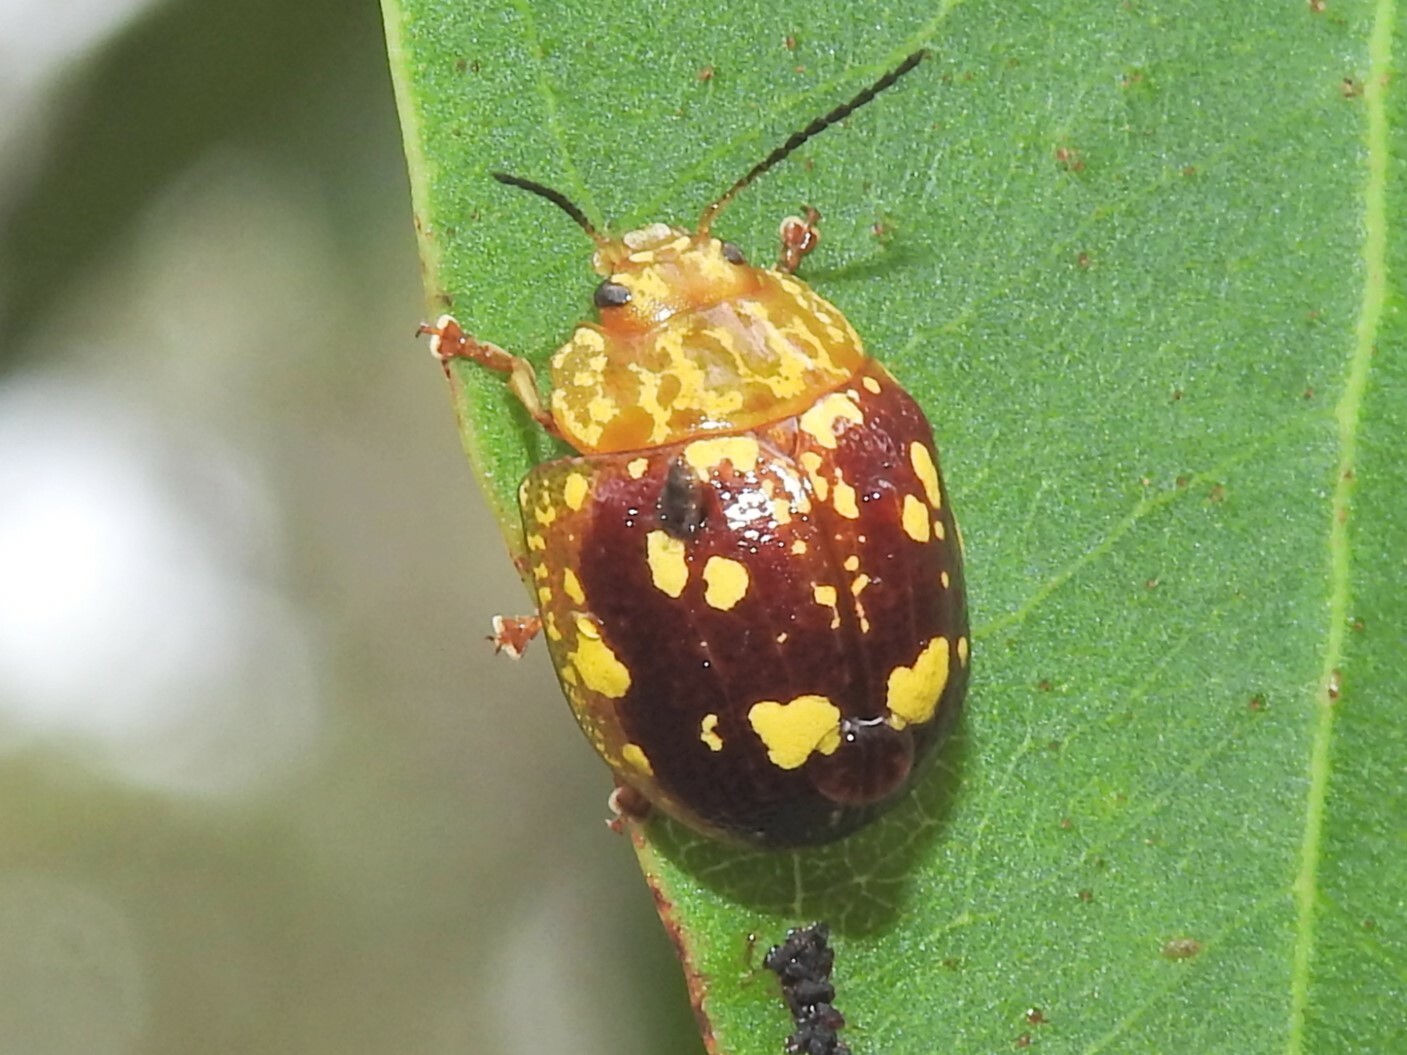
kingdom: Animalia
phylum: Arthropoda
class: Insecta
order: Coleoptera
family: Chrysomelidae
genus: Paropsis
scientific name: Paropsis maculata
